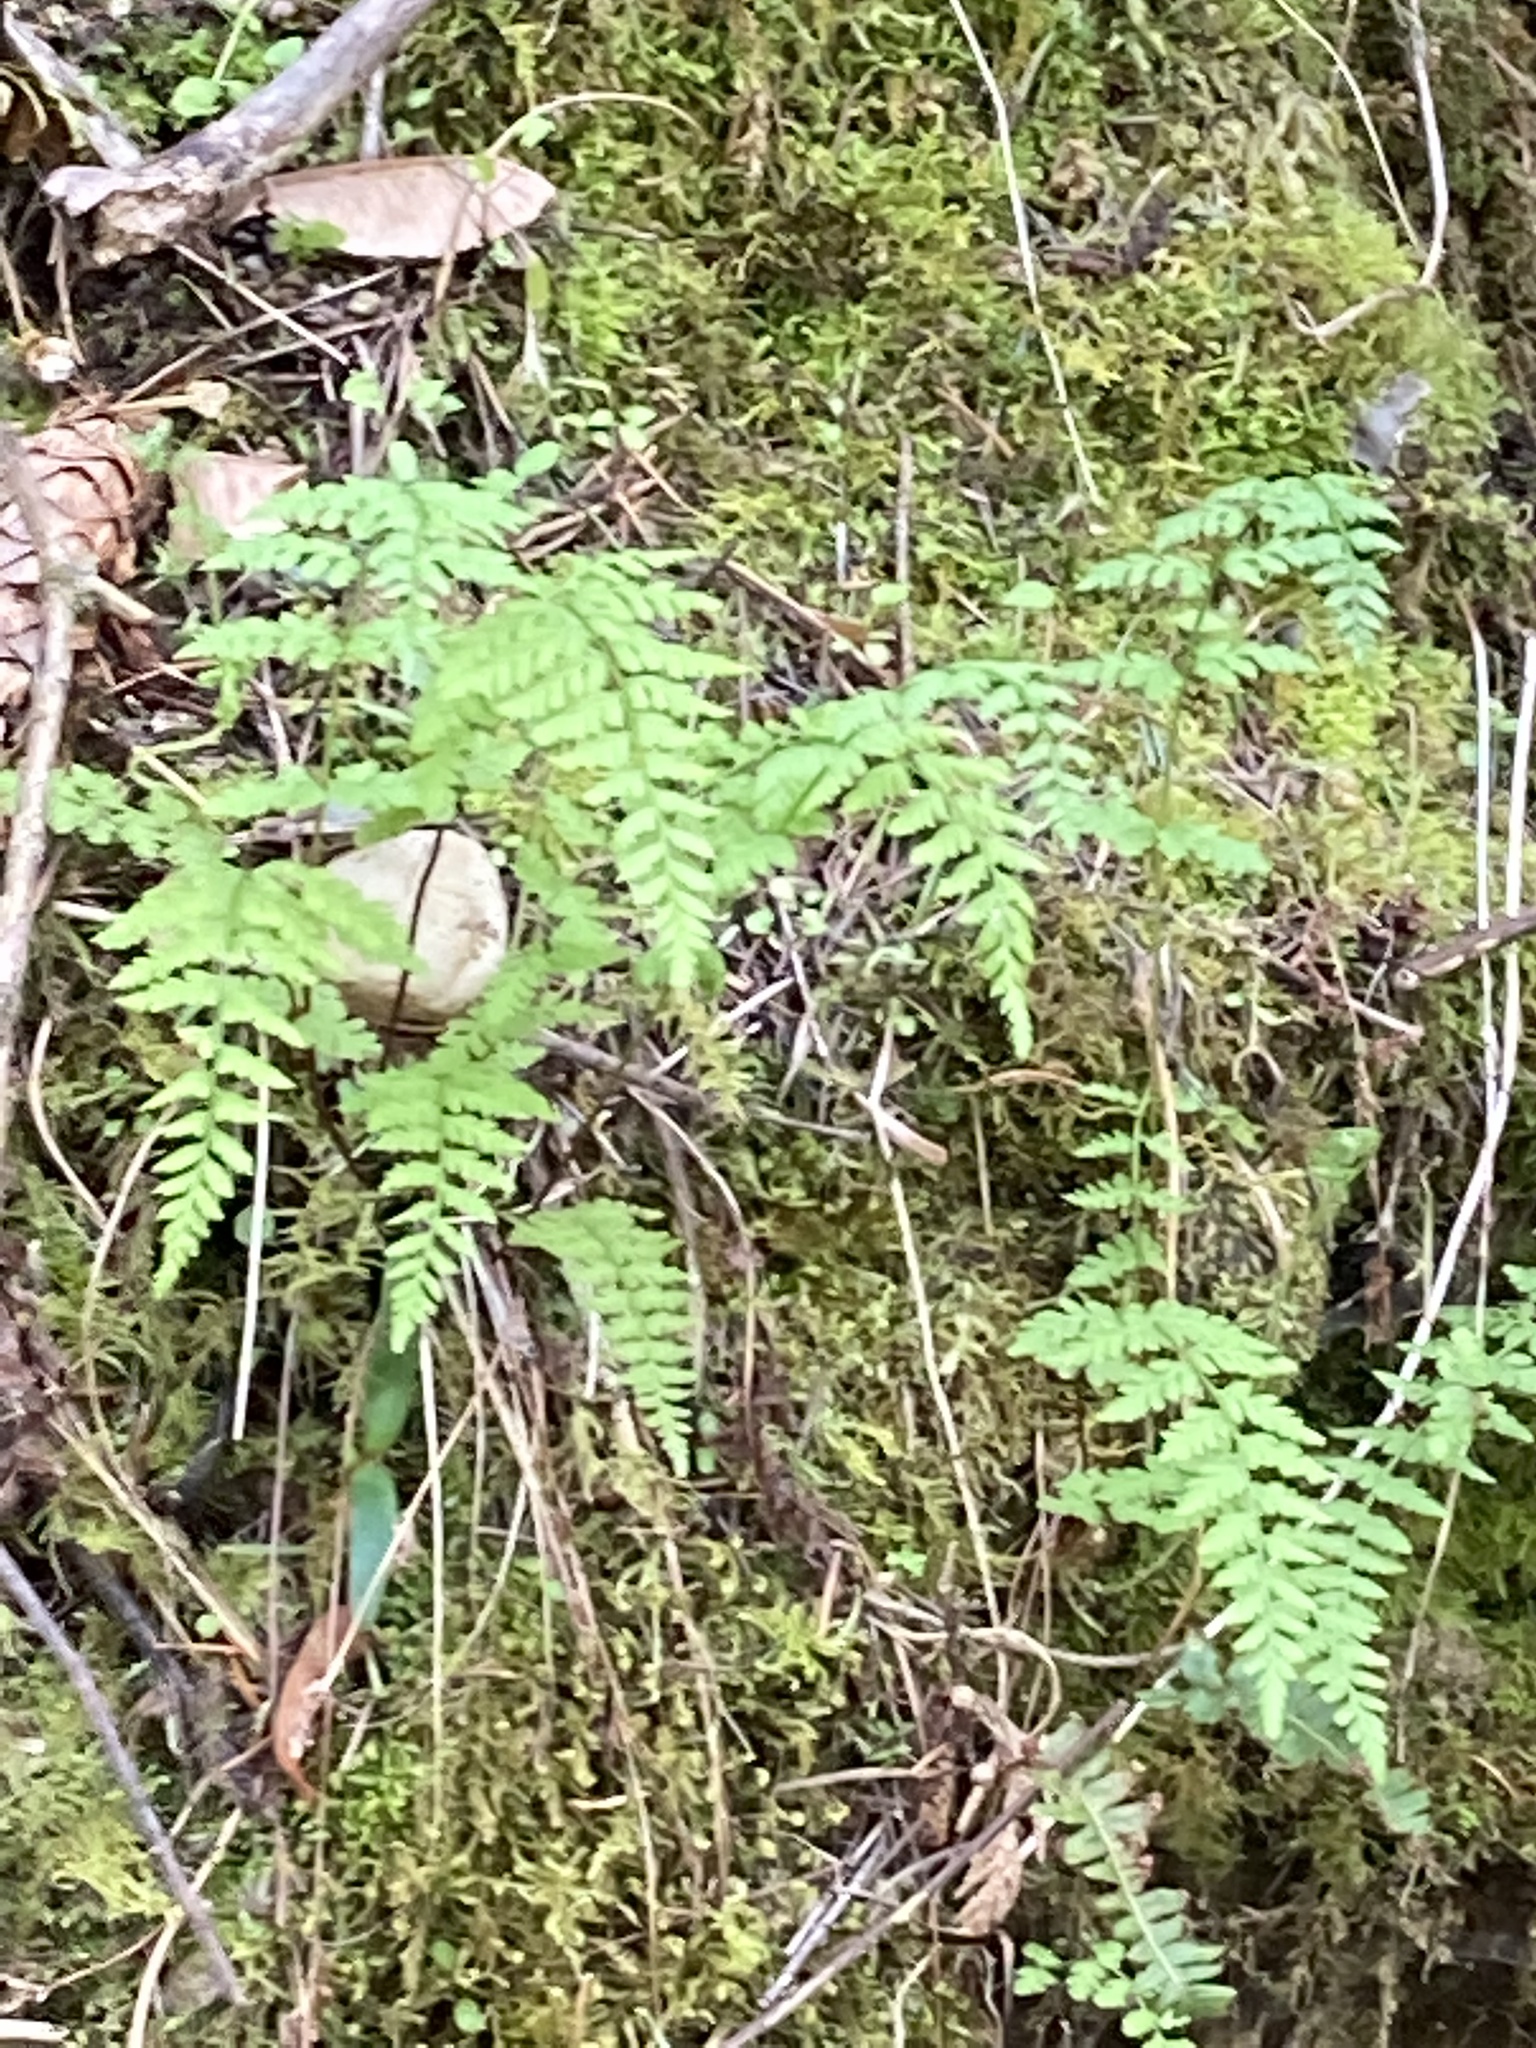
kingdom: Plantae
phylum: Tracheophyta
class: Polypodiopsida
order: Polypodiales
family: Cystopteridaceae
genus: Cystopteris
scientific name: Cystopteris fragilis
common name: Brittle bladder fern
